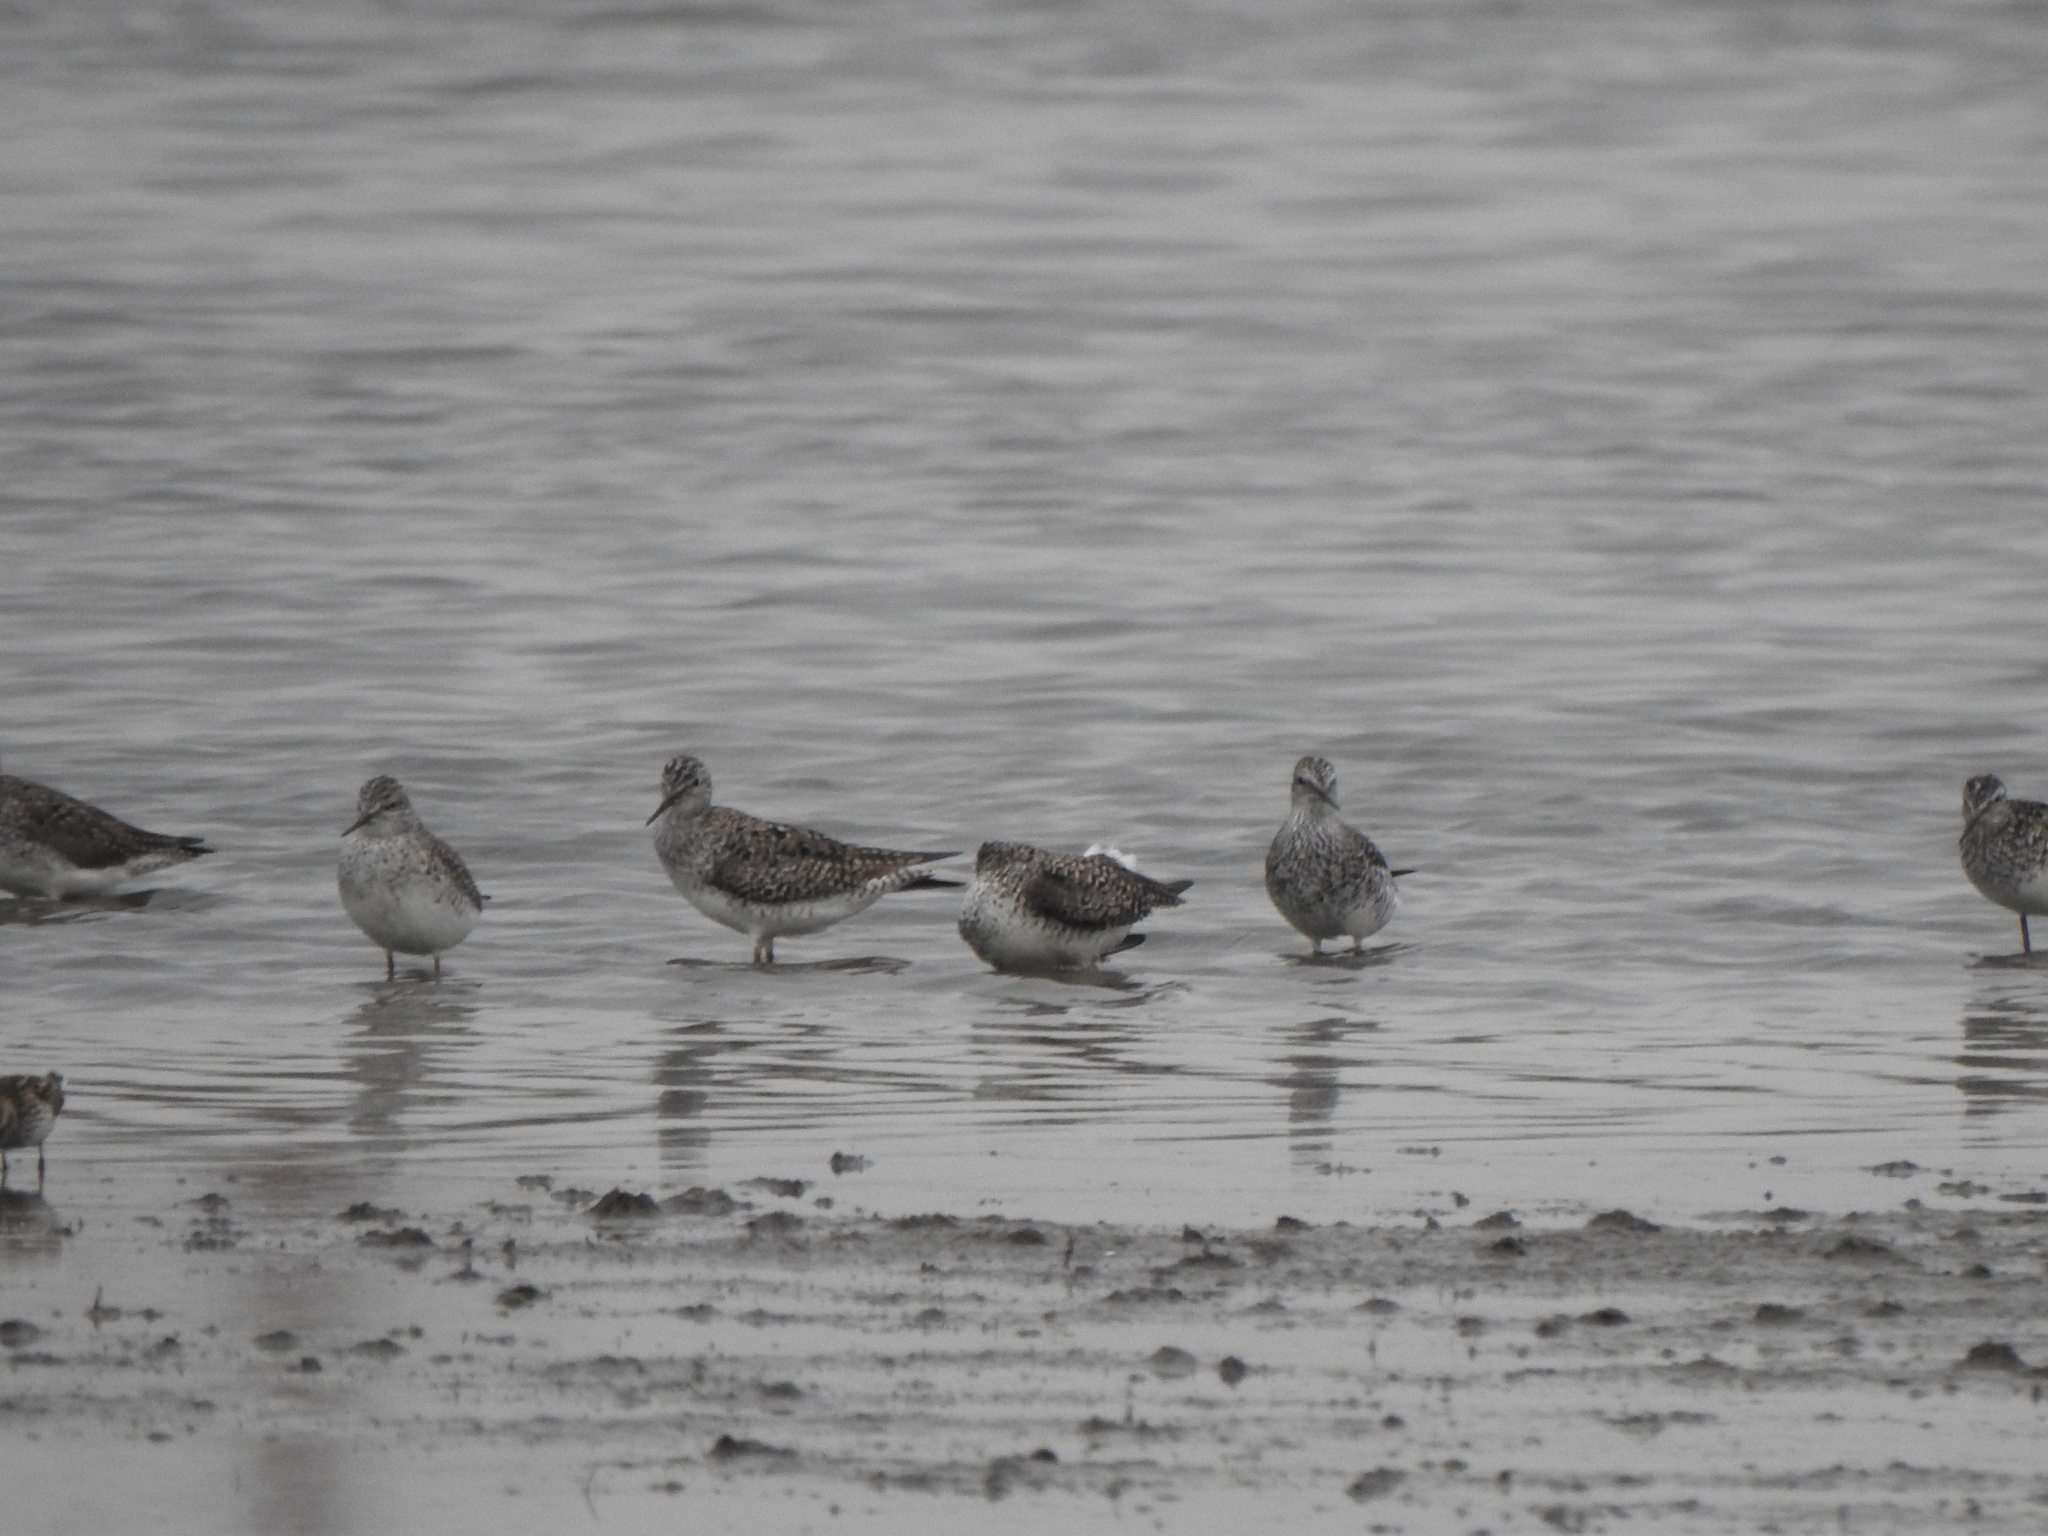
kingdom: Animalia
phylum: Chordata
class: Aves
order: Charadriiformes
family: Scolopacidae
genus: Tringa
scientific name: Tringa flavipes
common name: Lesser yellowlegs
